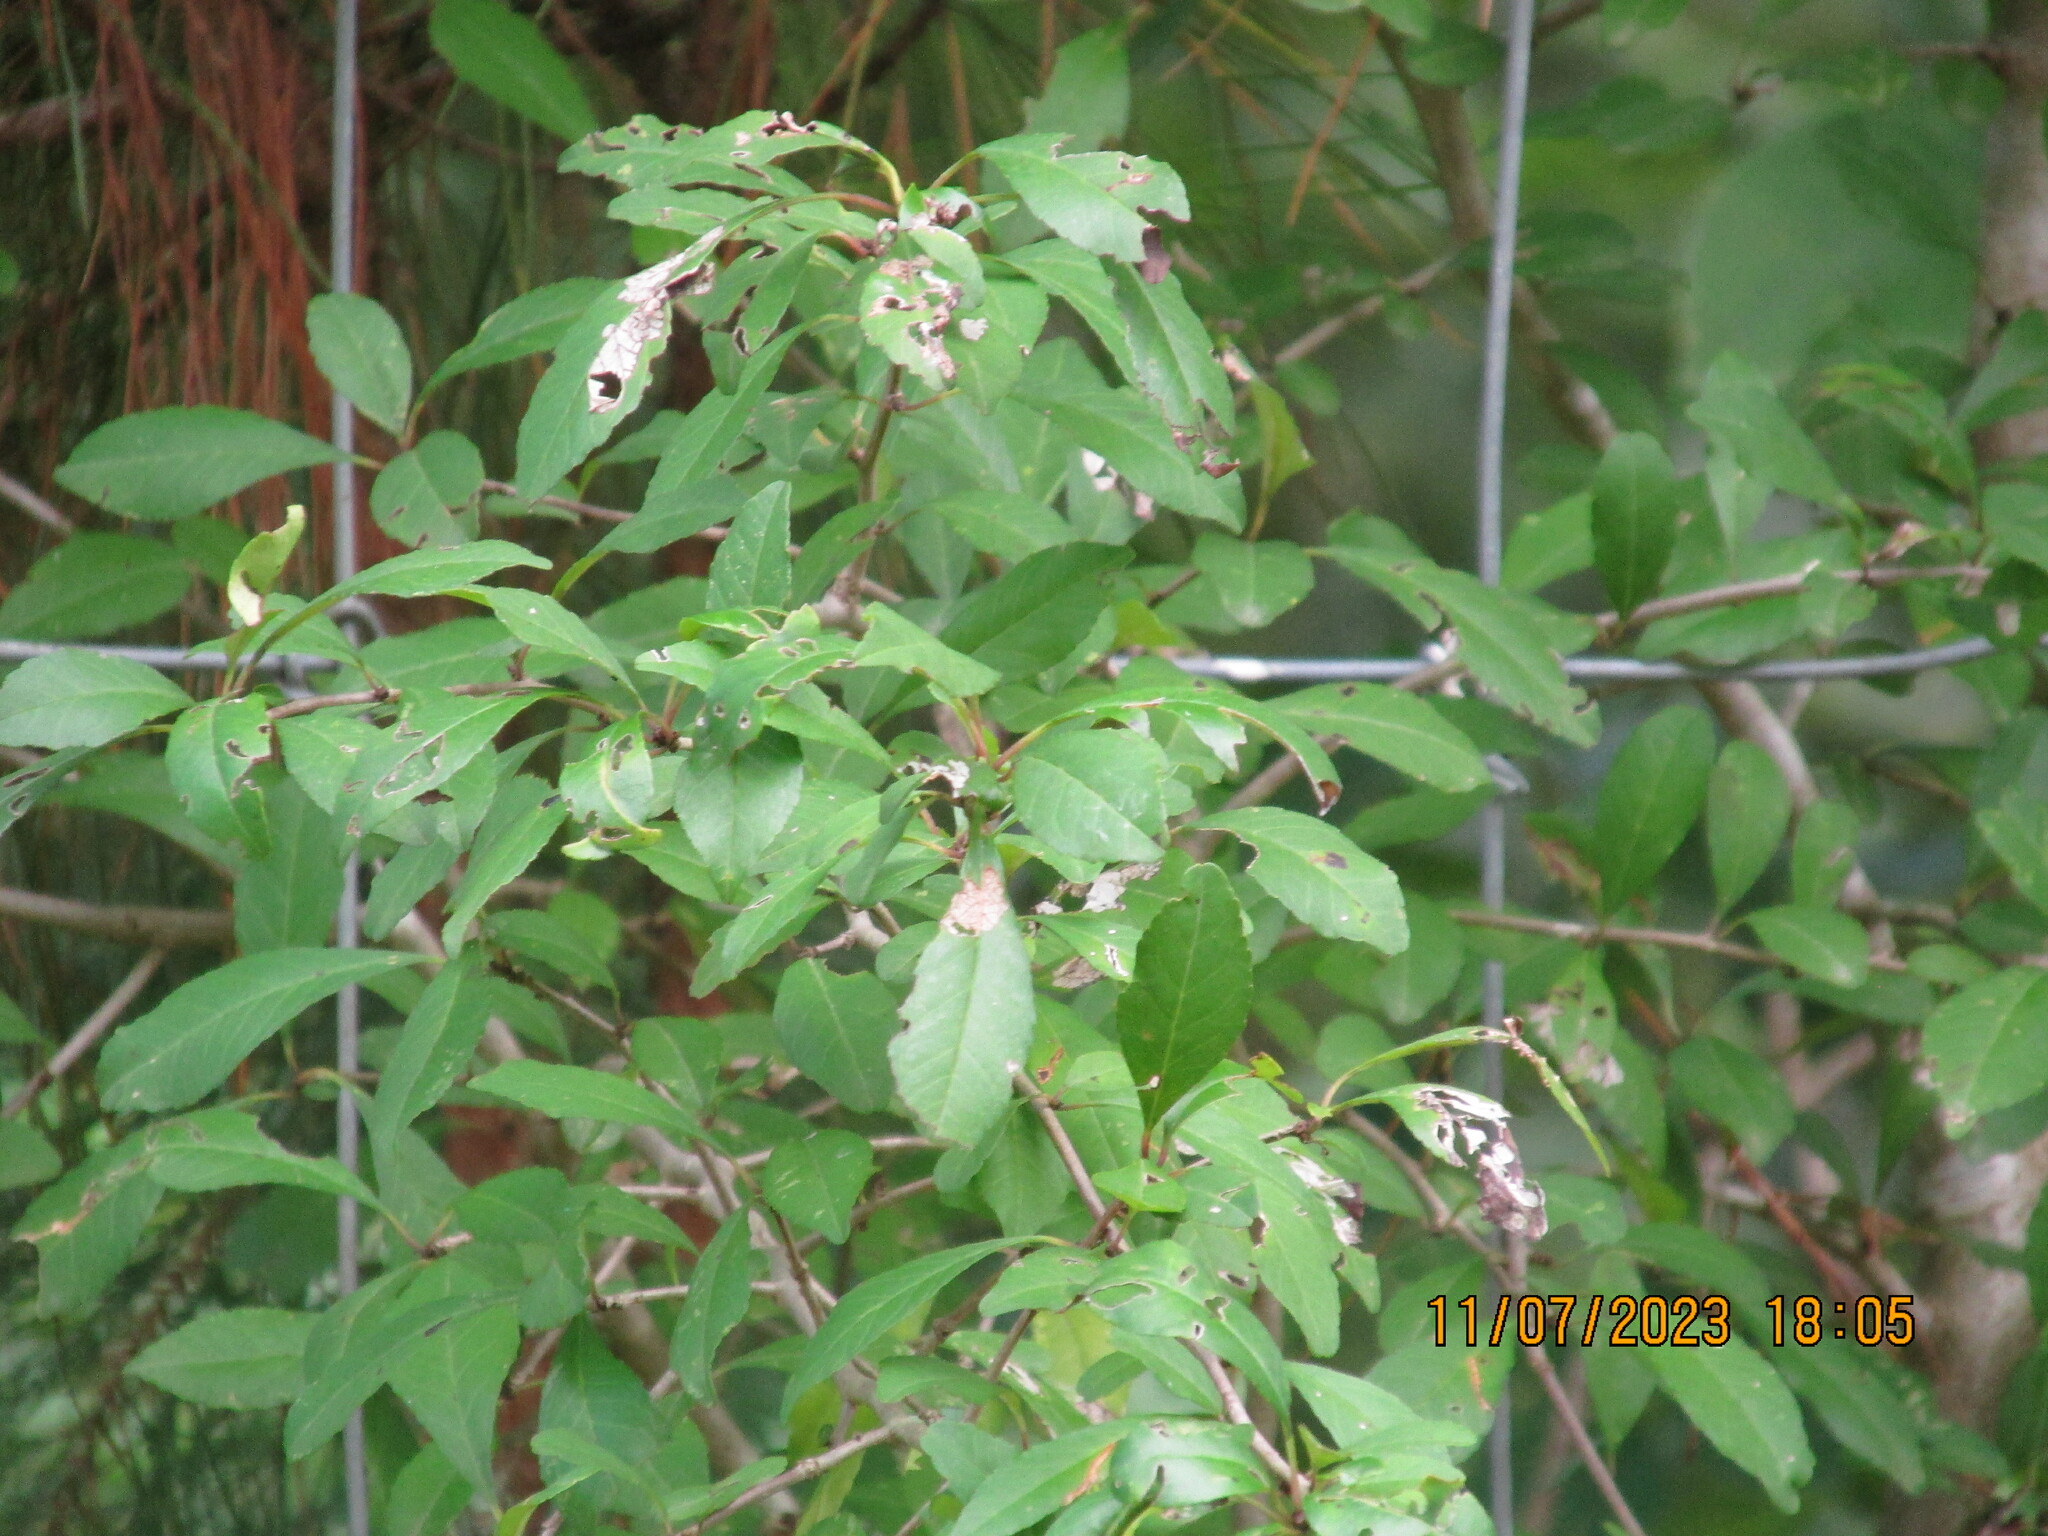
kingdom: Plantae
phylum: Tracheophyta
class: Magnoliopsida
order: Aquifoliales
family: Aquifoliaceae
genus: Ilex
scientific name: Ilex decidua
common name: Possum-haw
